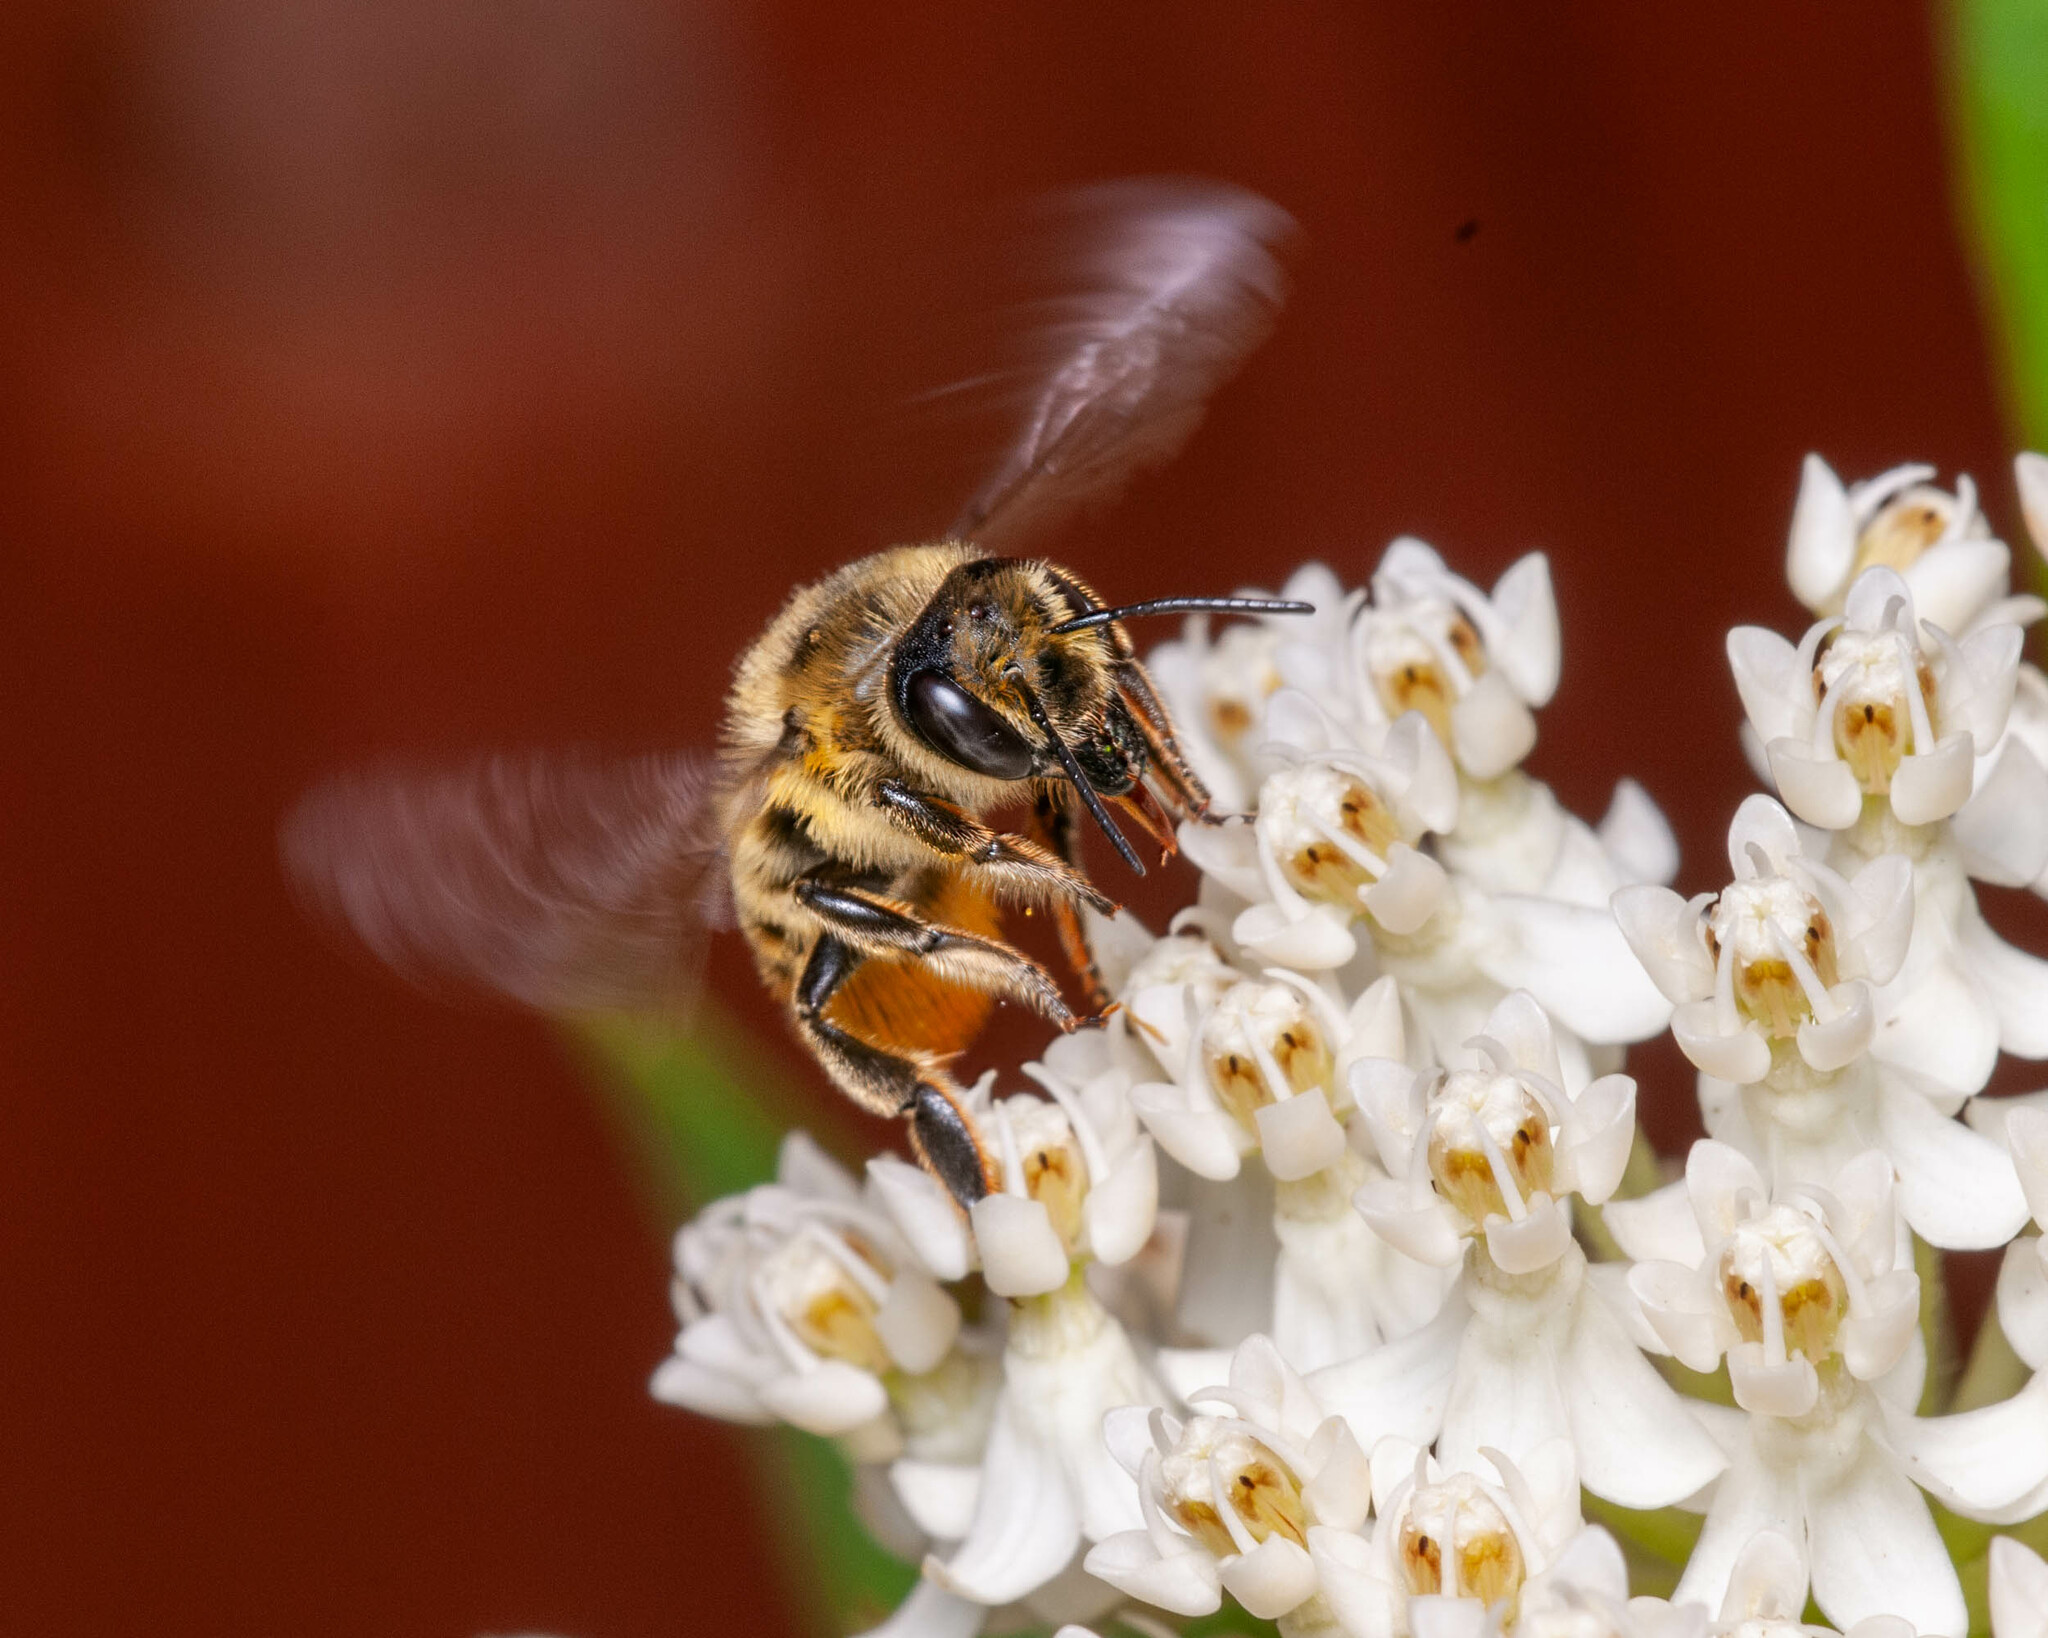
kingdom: Animalia
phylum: Arthropoda
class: Insecta
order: Hymenoptera
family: Megachilidae
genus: Megachile
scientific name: Megachile latimanus
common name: Leafcutting bee
